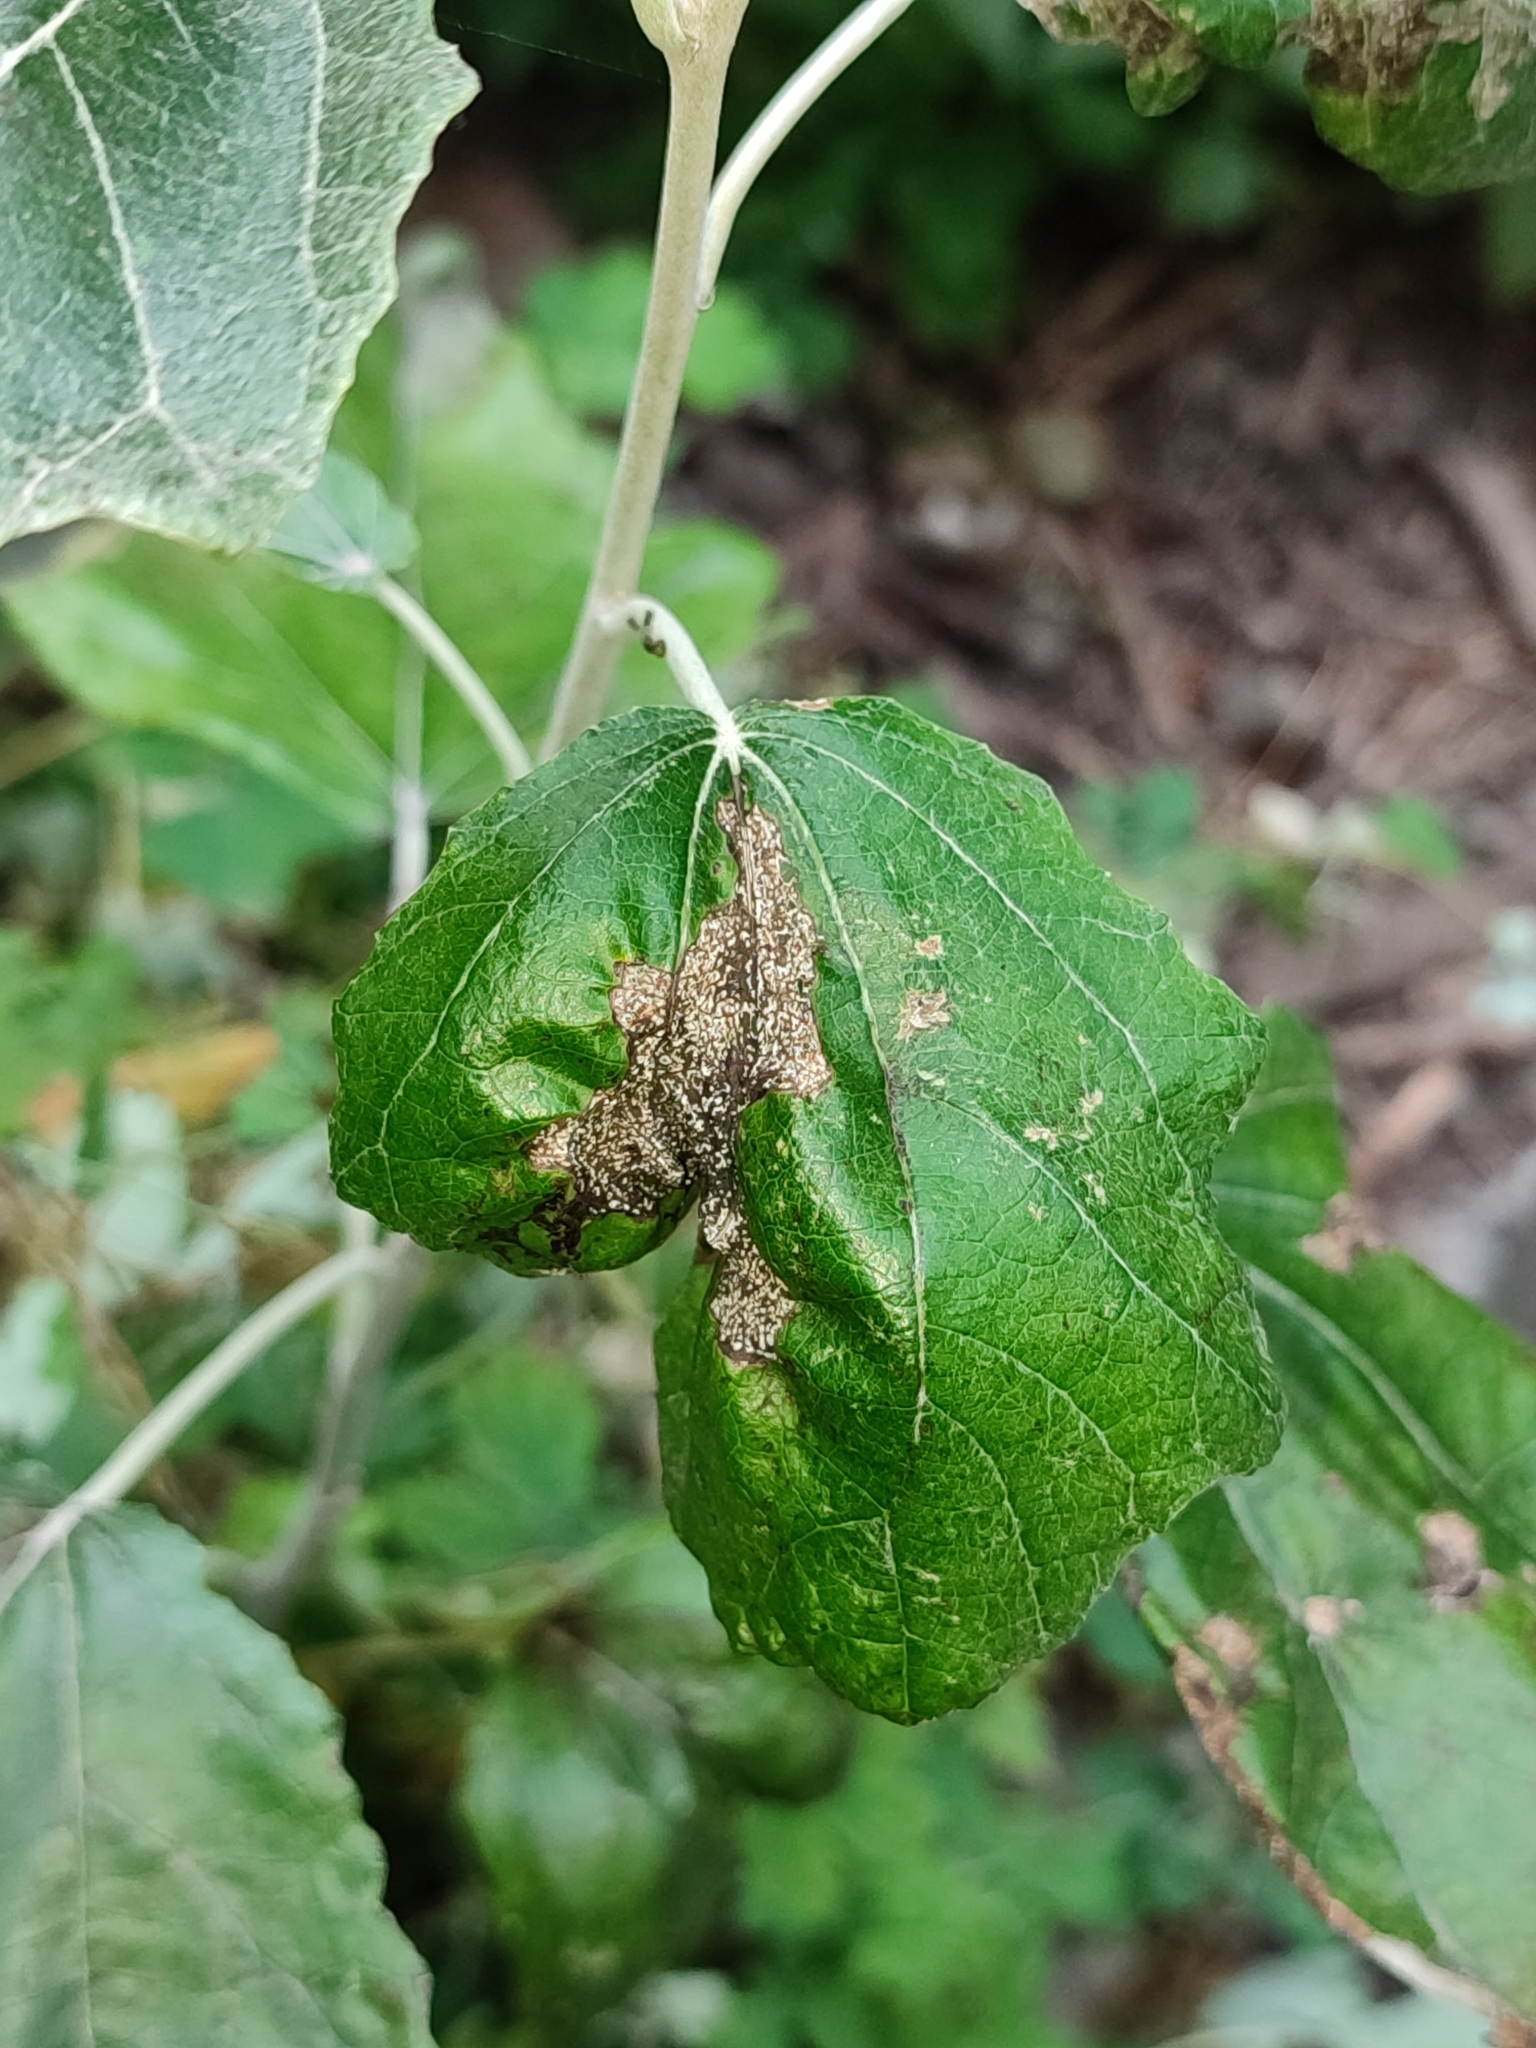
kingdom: Plantae
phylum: Tracheophyta
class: Magnoliopsida
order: Malpighiales
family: Salicaceae
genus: Populus
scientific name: Populus alba
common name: White poplar
